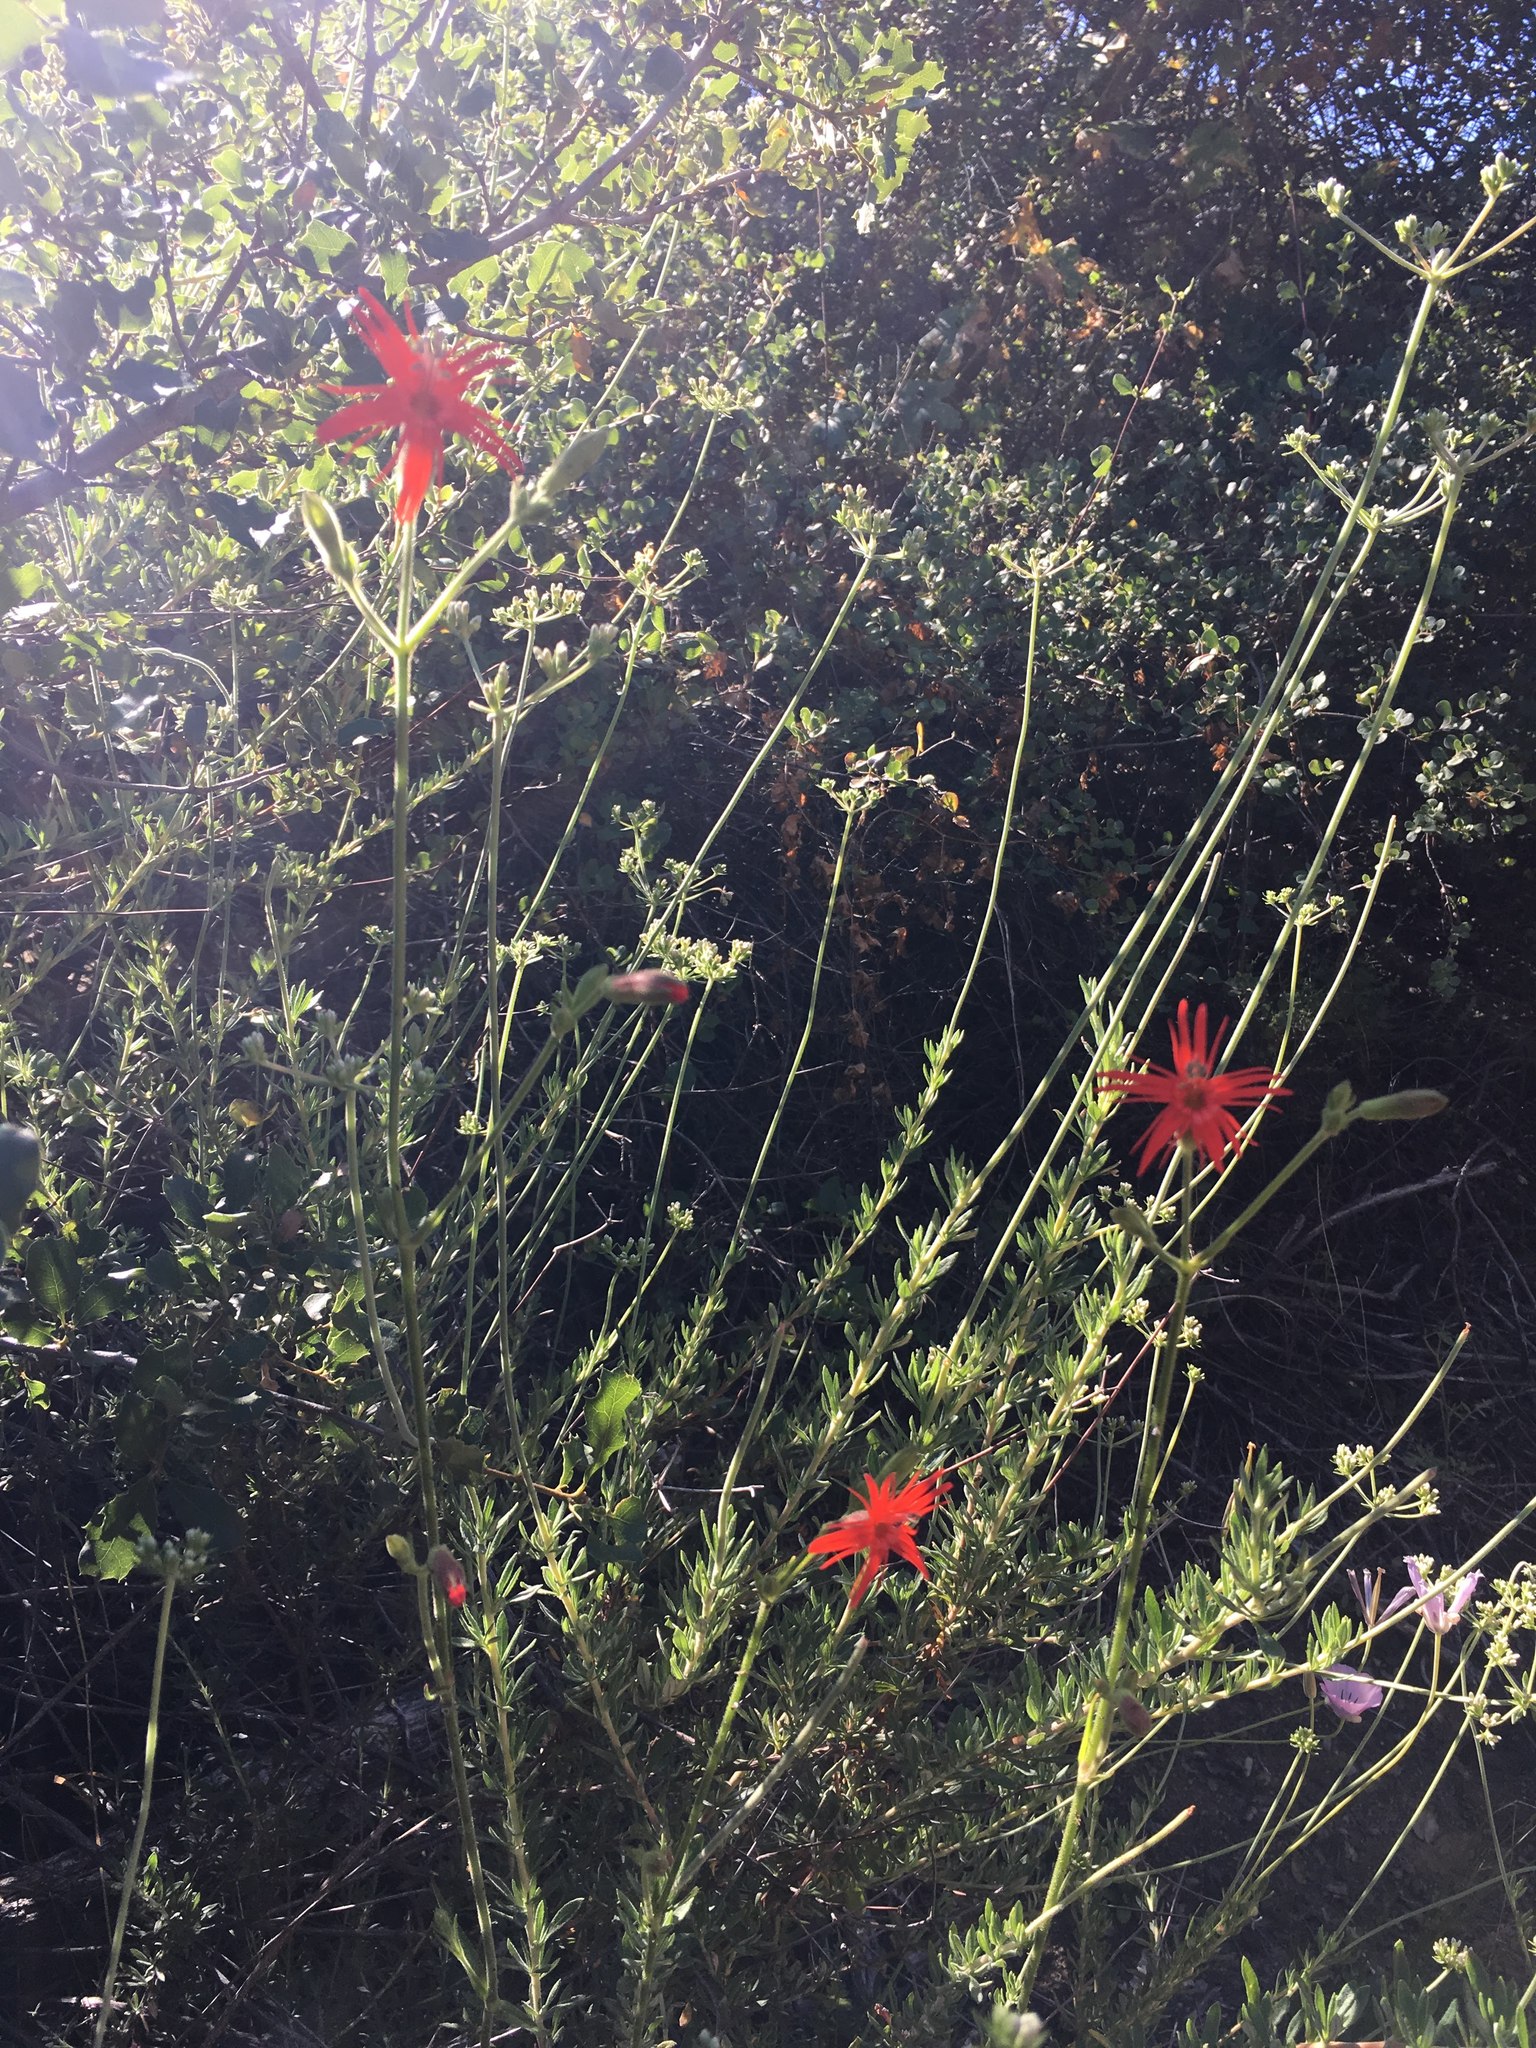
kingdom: Plantae
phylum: Tracheophyta
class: Magnoliopsida
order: Caryophyllales
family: Caryophyllaceae
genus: Silene
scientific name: Silene laciniata
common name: Indian-pink
